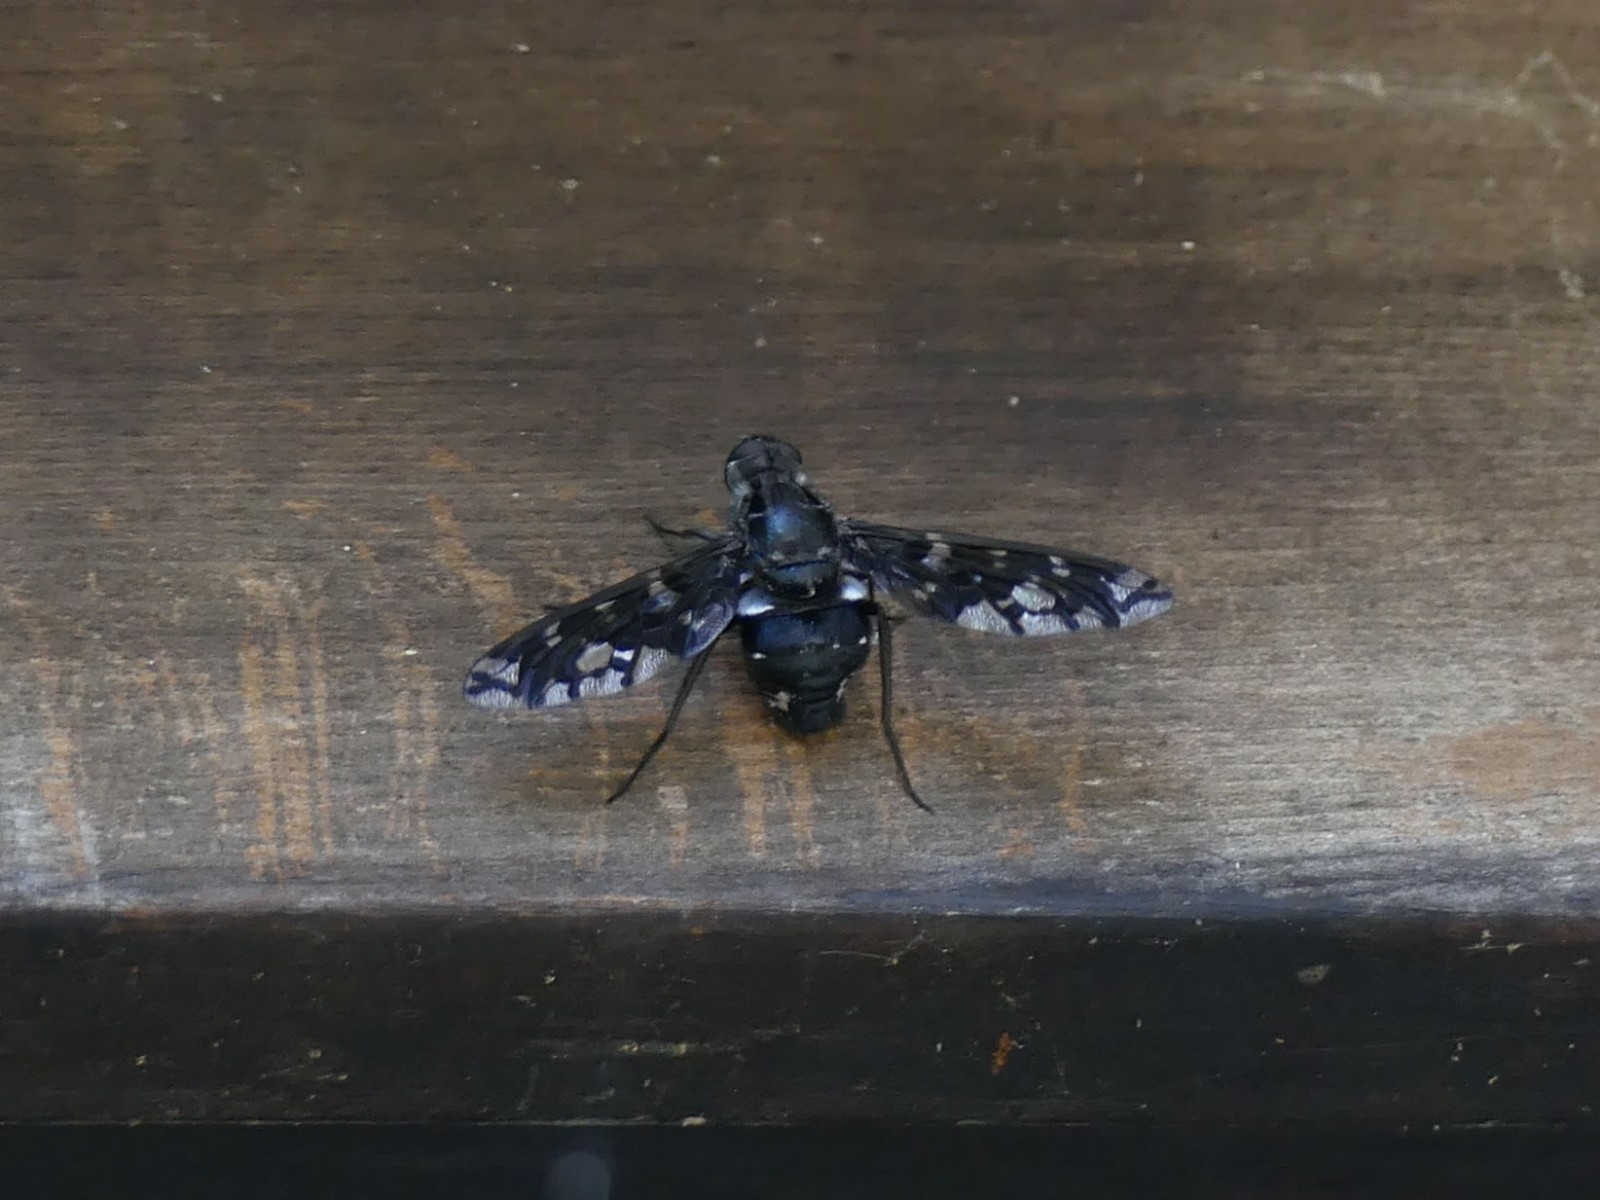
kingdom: Animalia
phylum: Arthropoda
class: Insecta
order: Diptera
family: Bombyliidae
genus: Xenox
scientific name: Xenox tigrinus
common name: Tiger bee fly
